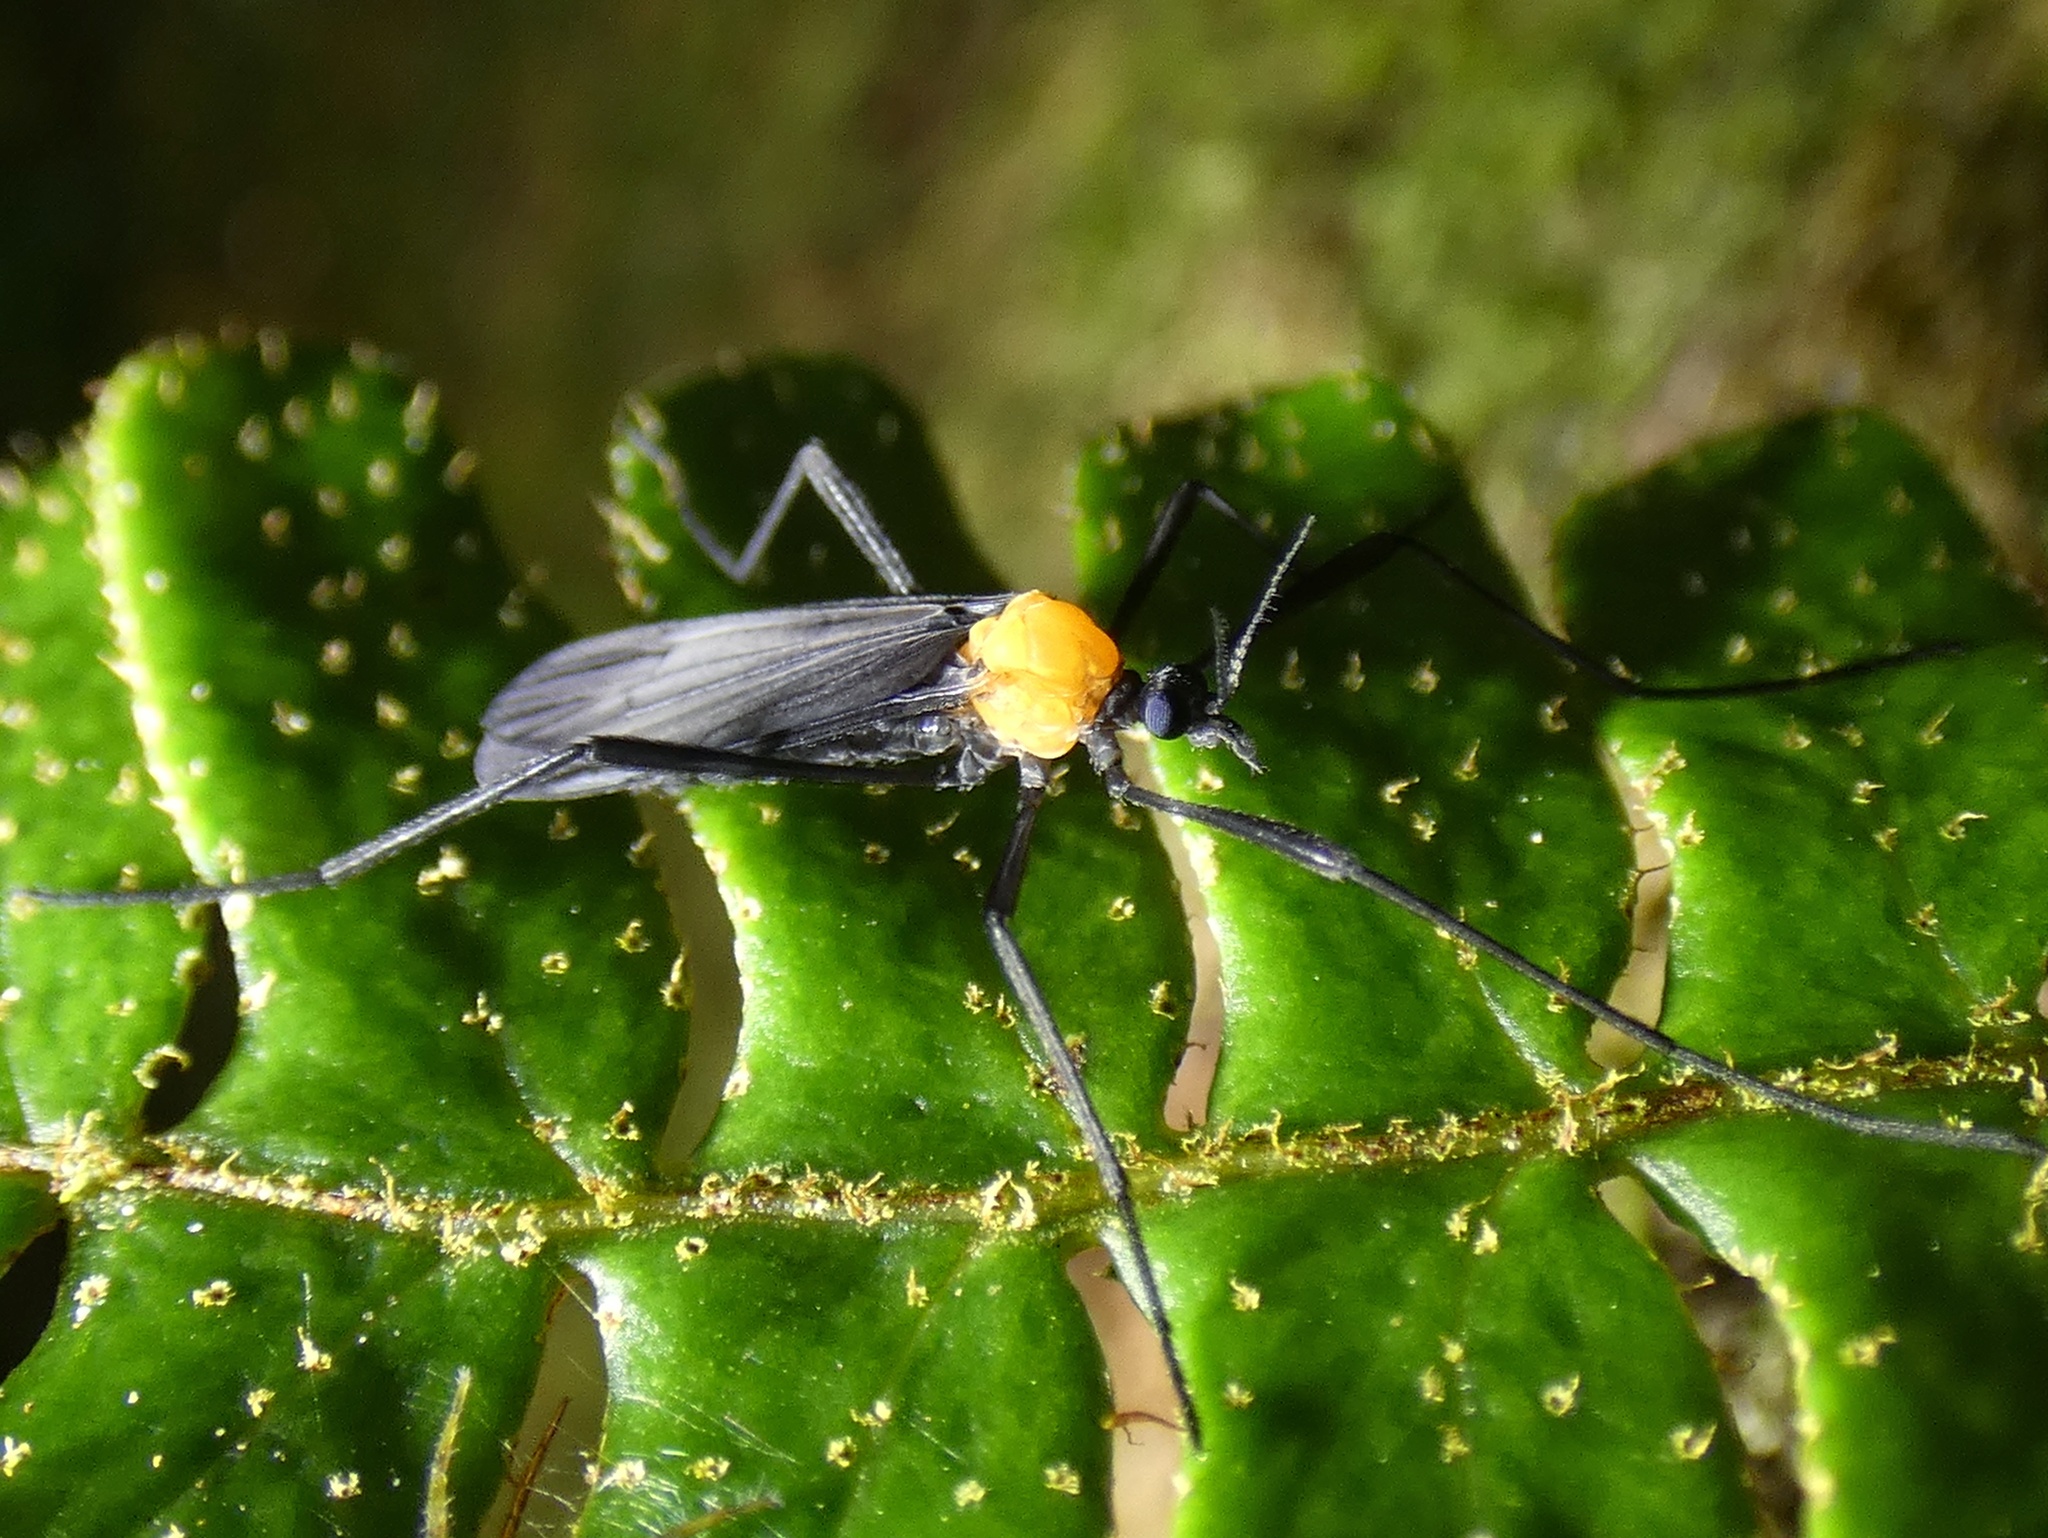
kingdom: Animalia
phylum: Arthropoda
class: Insecta
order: Diptera
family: Limoniidae
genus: Eugnophomyia
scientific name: Eugnophomyia curraniana
